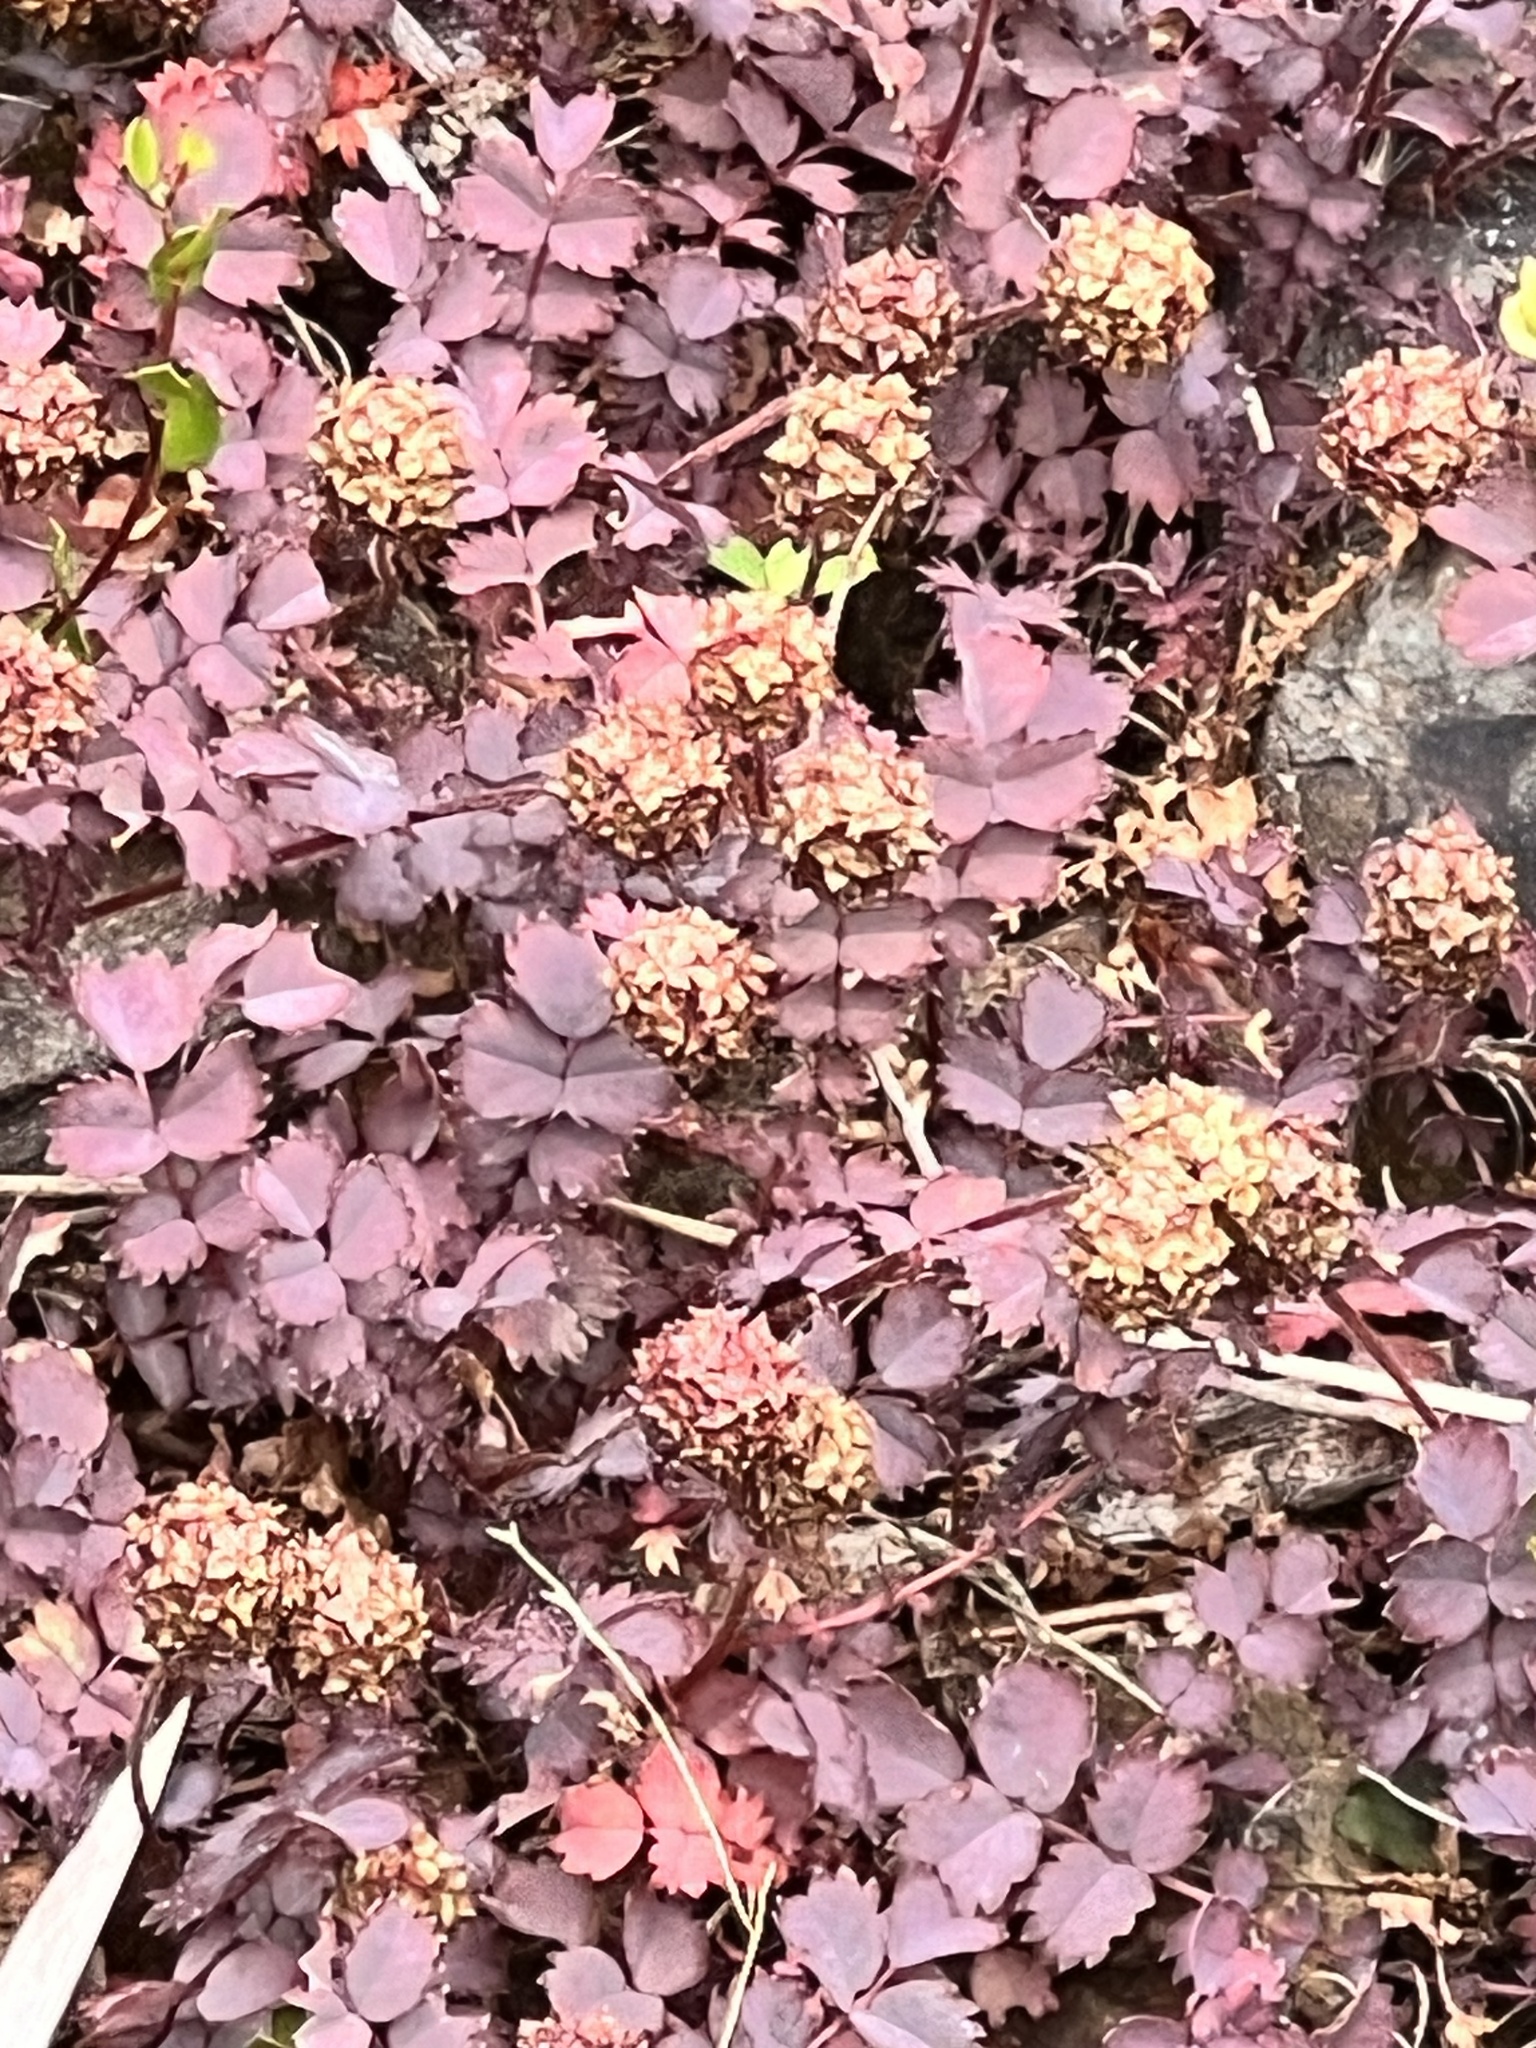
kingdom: Plantae
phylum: Tracheophyta
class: Magnoliopsida
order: Rosales
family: Rosaceae
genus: Acaena
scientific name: Acaena inermis
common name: Spineless acaena
